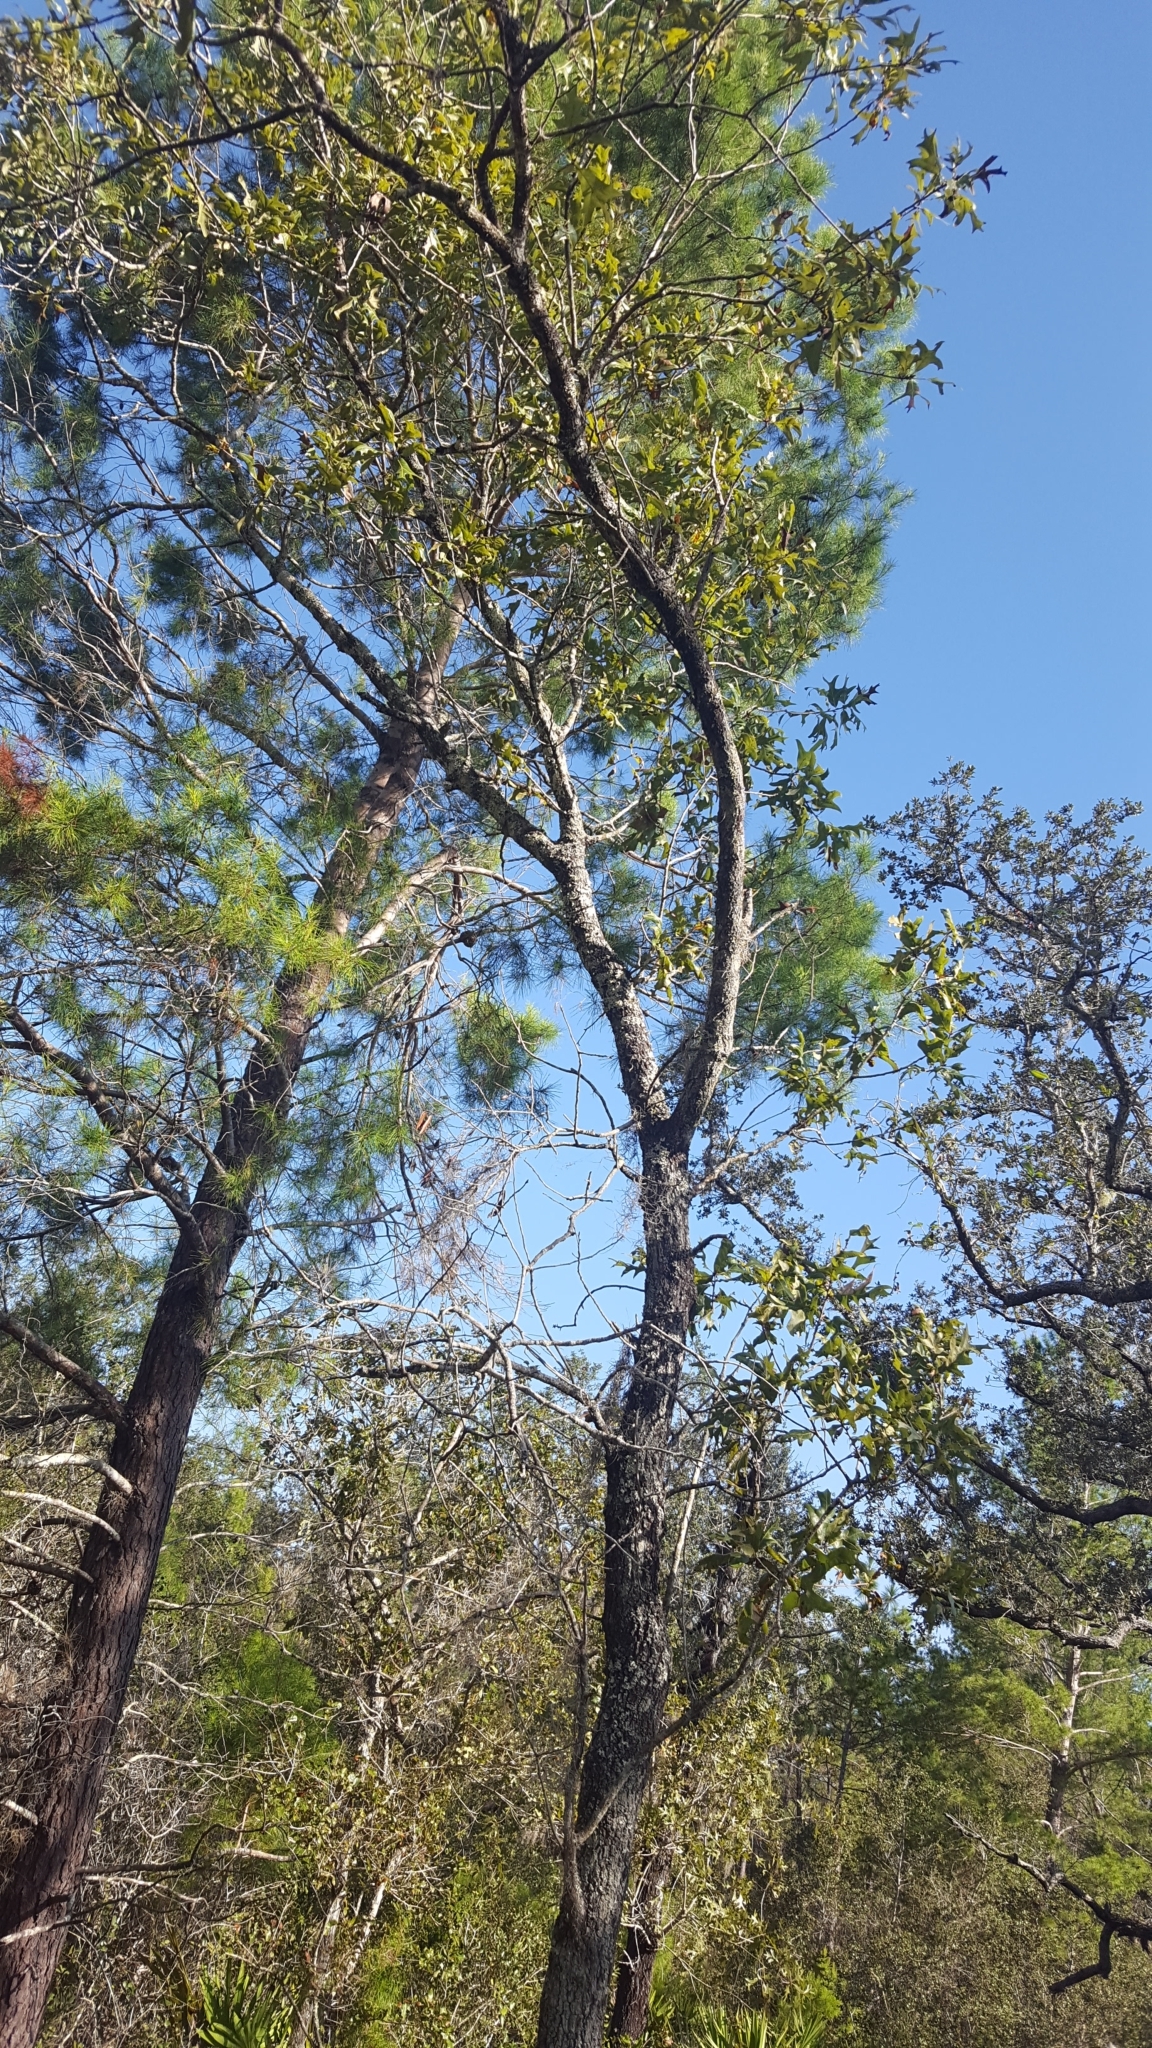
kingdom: Plantae
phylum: Tracheophyta
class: Magnoliopsida
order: Fagales
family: Fagaceae
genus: Quercus
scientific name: Quercus laevis
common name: Turkey oak
